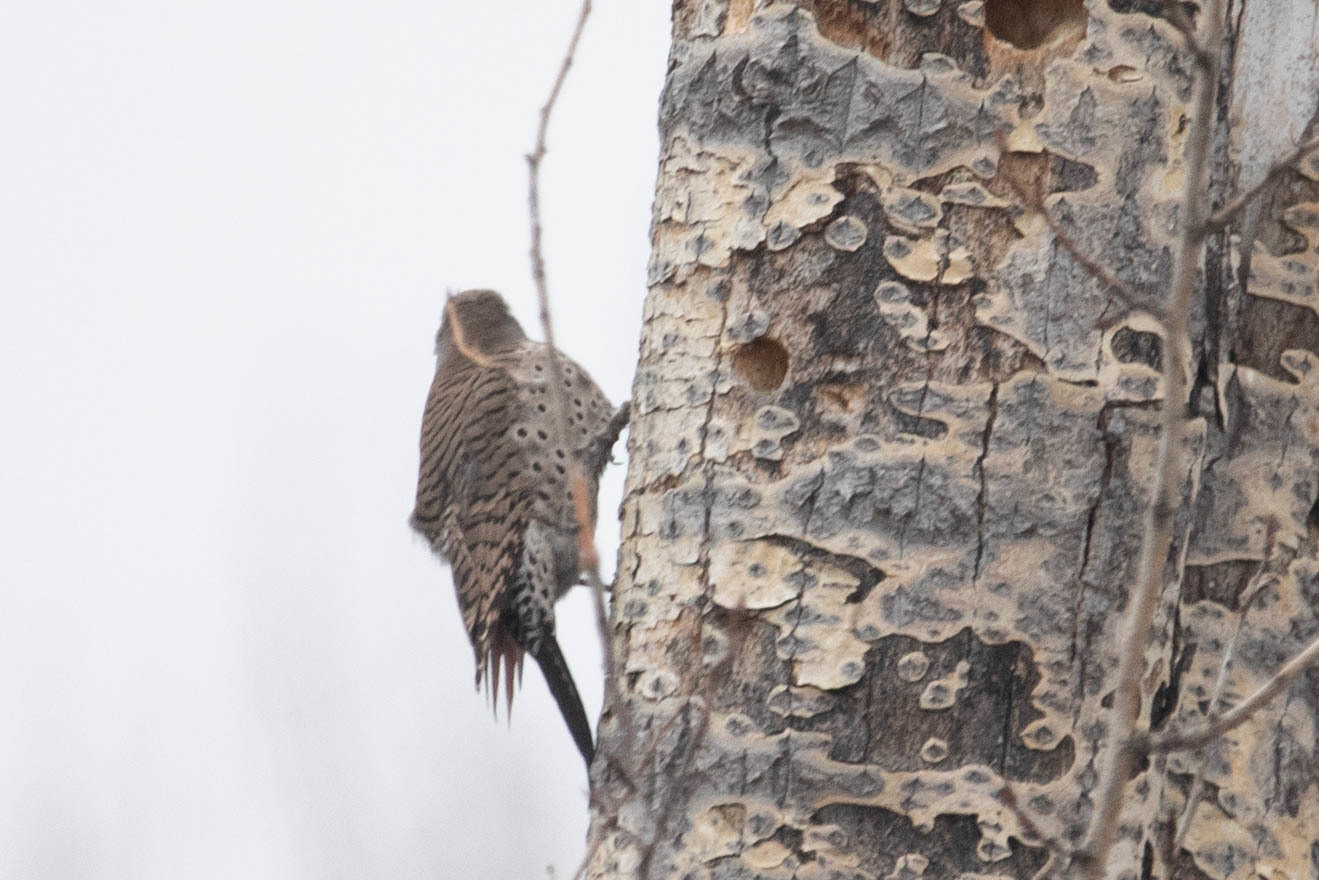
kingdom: Animalia
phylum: Chordata
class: Aves
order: Piciformes
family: Picidae
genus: Colaptes
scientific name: Colaptes auratus
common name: Northern flicker
